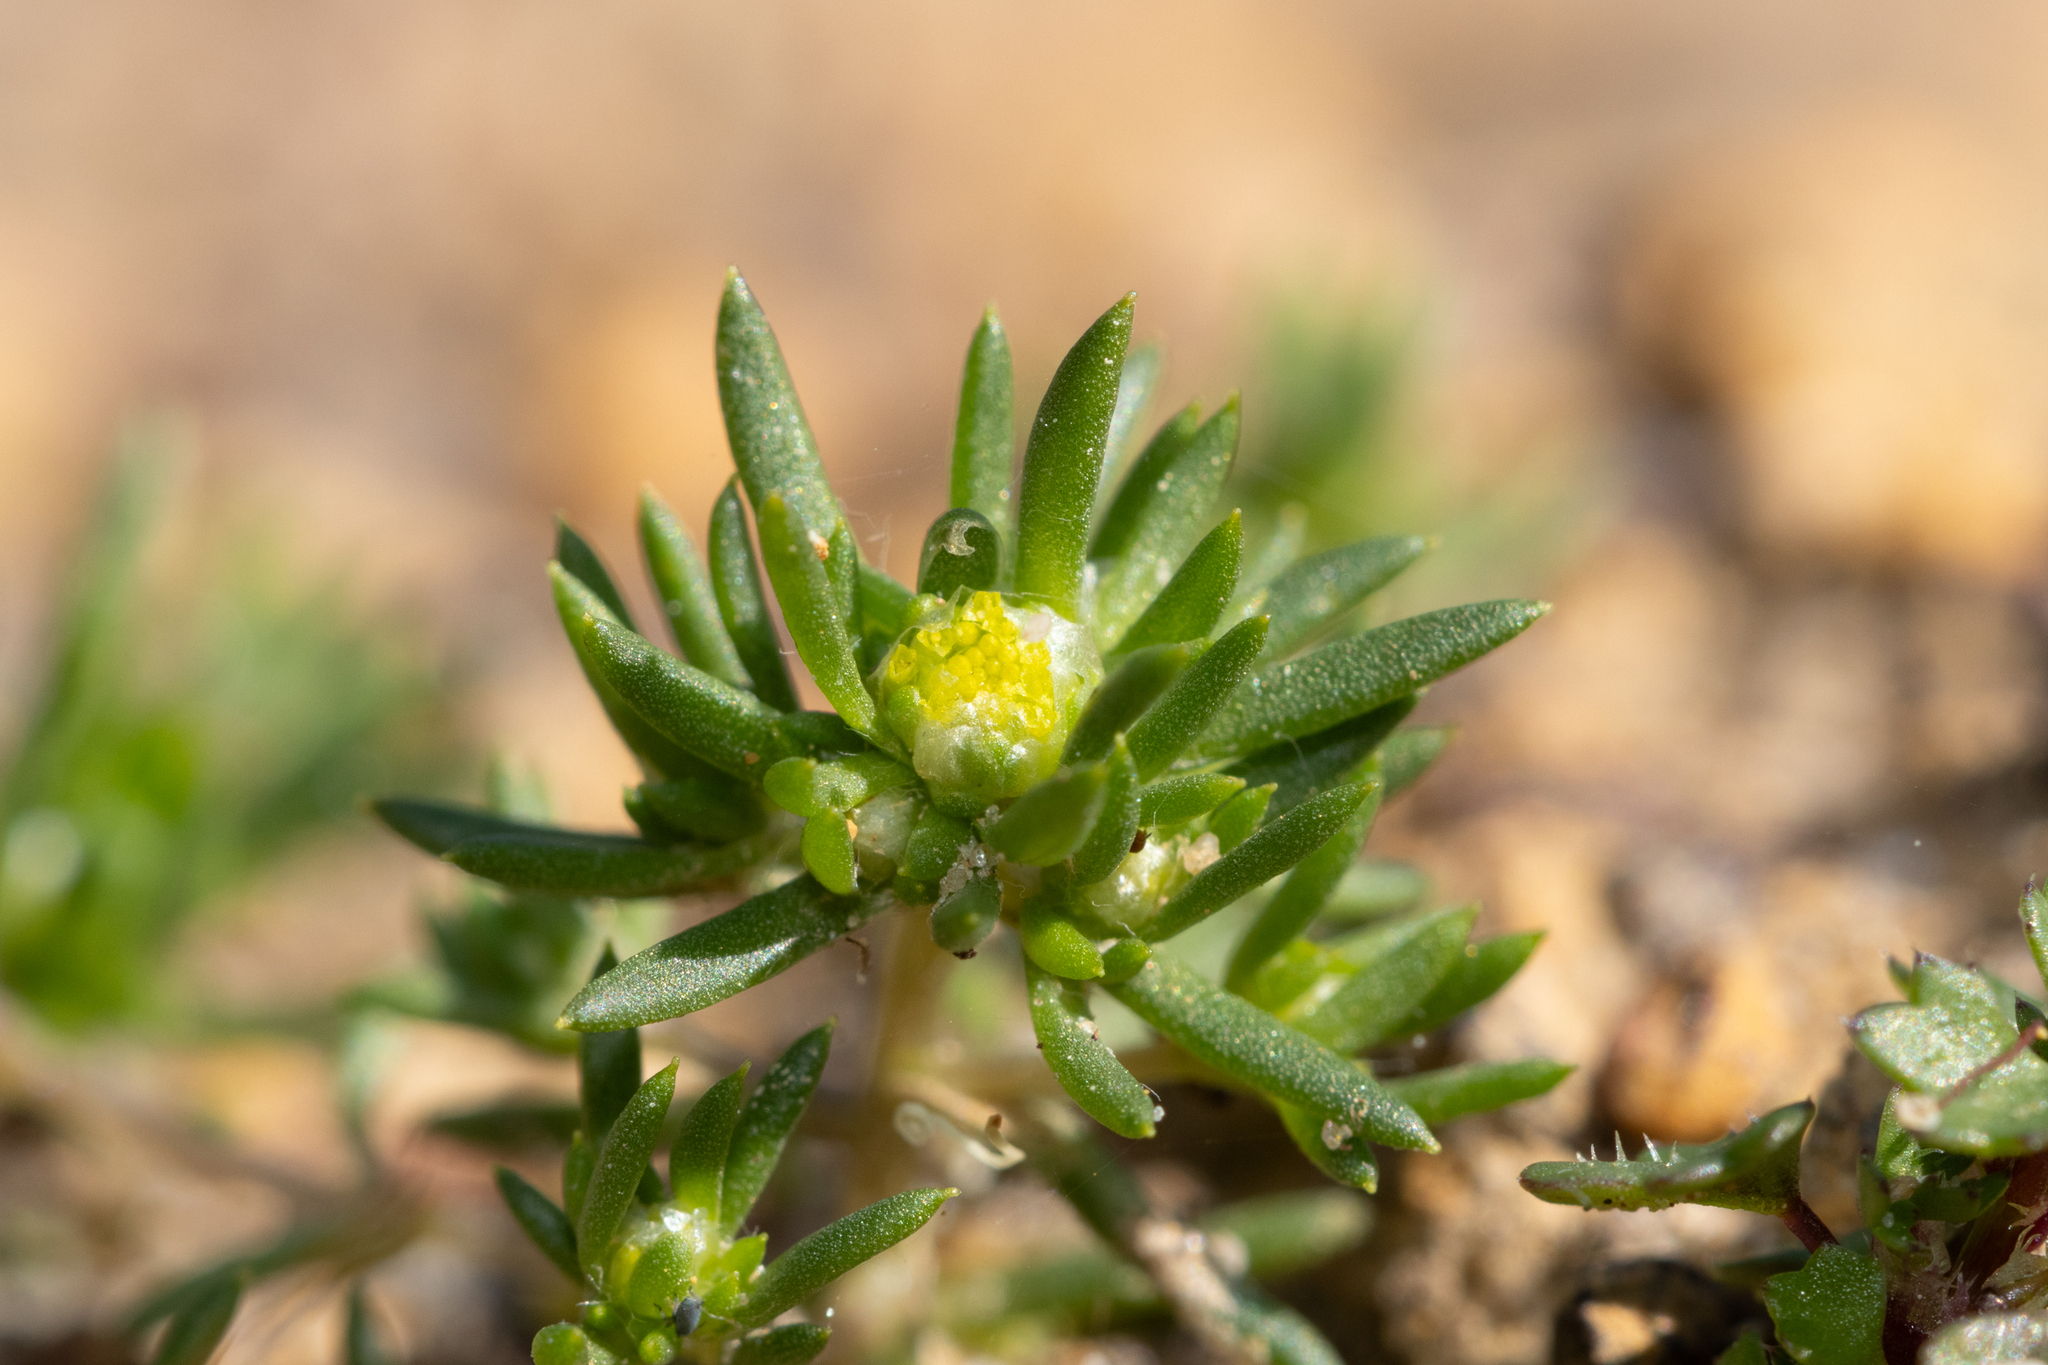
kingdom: Plantae
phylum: Tracheophyta
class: Magnoliopsida
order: Asterales
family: Asteraceae
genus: Siloxerus
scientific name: Siloxerus multiflorus
